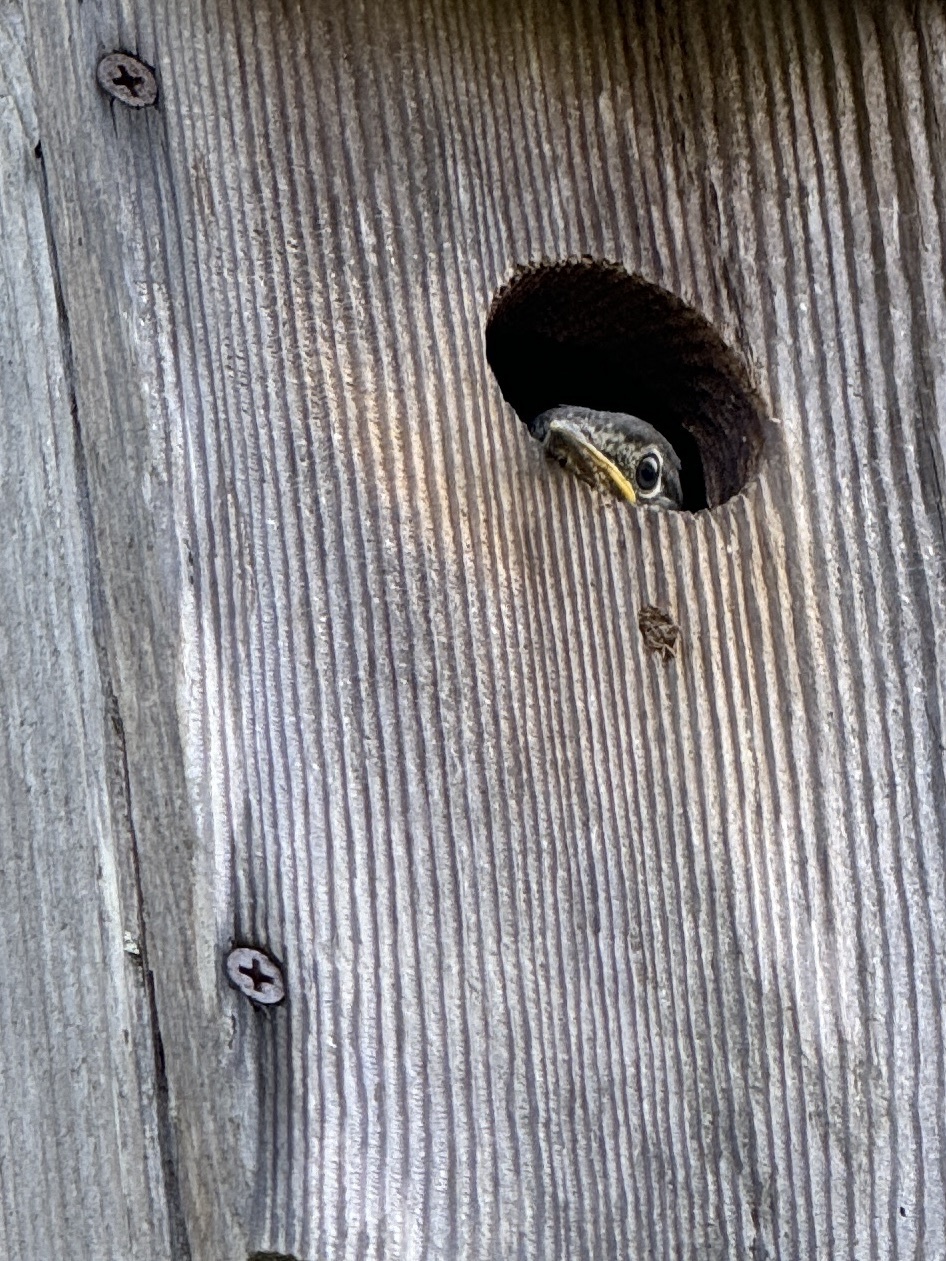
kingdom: Animalia
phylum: Chordata
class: Aves
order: Passeriformes
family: Turdidae
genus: Sialia
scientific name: Sialia sialis
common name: Eastern bluebird
